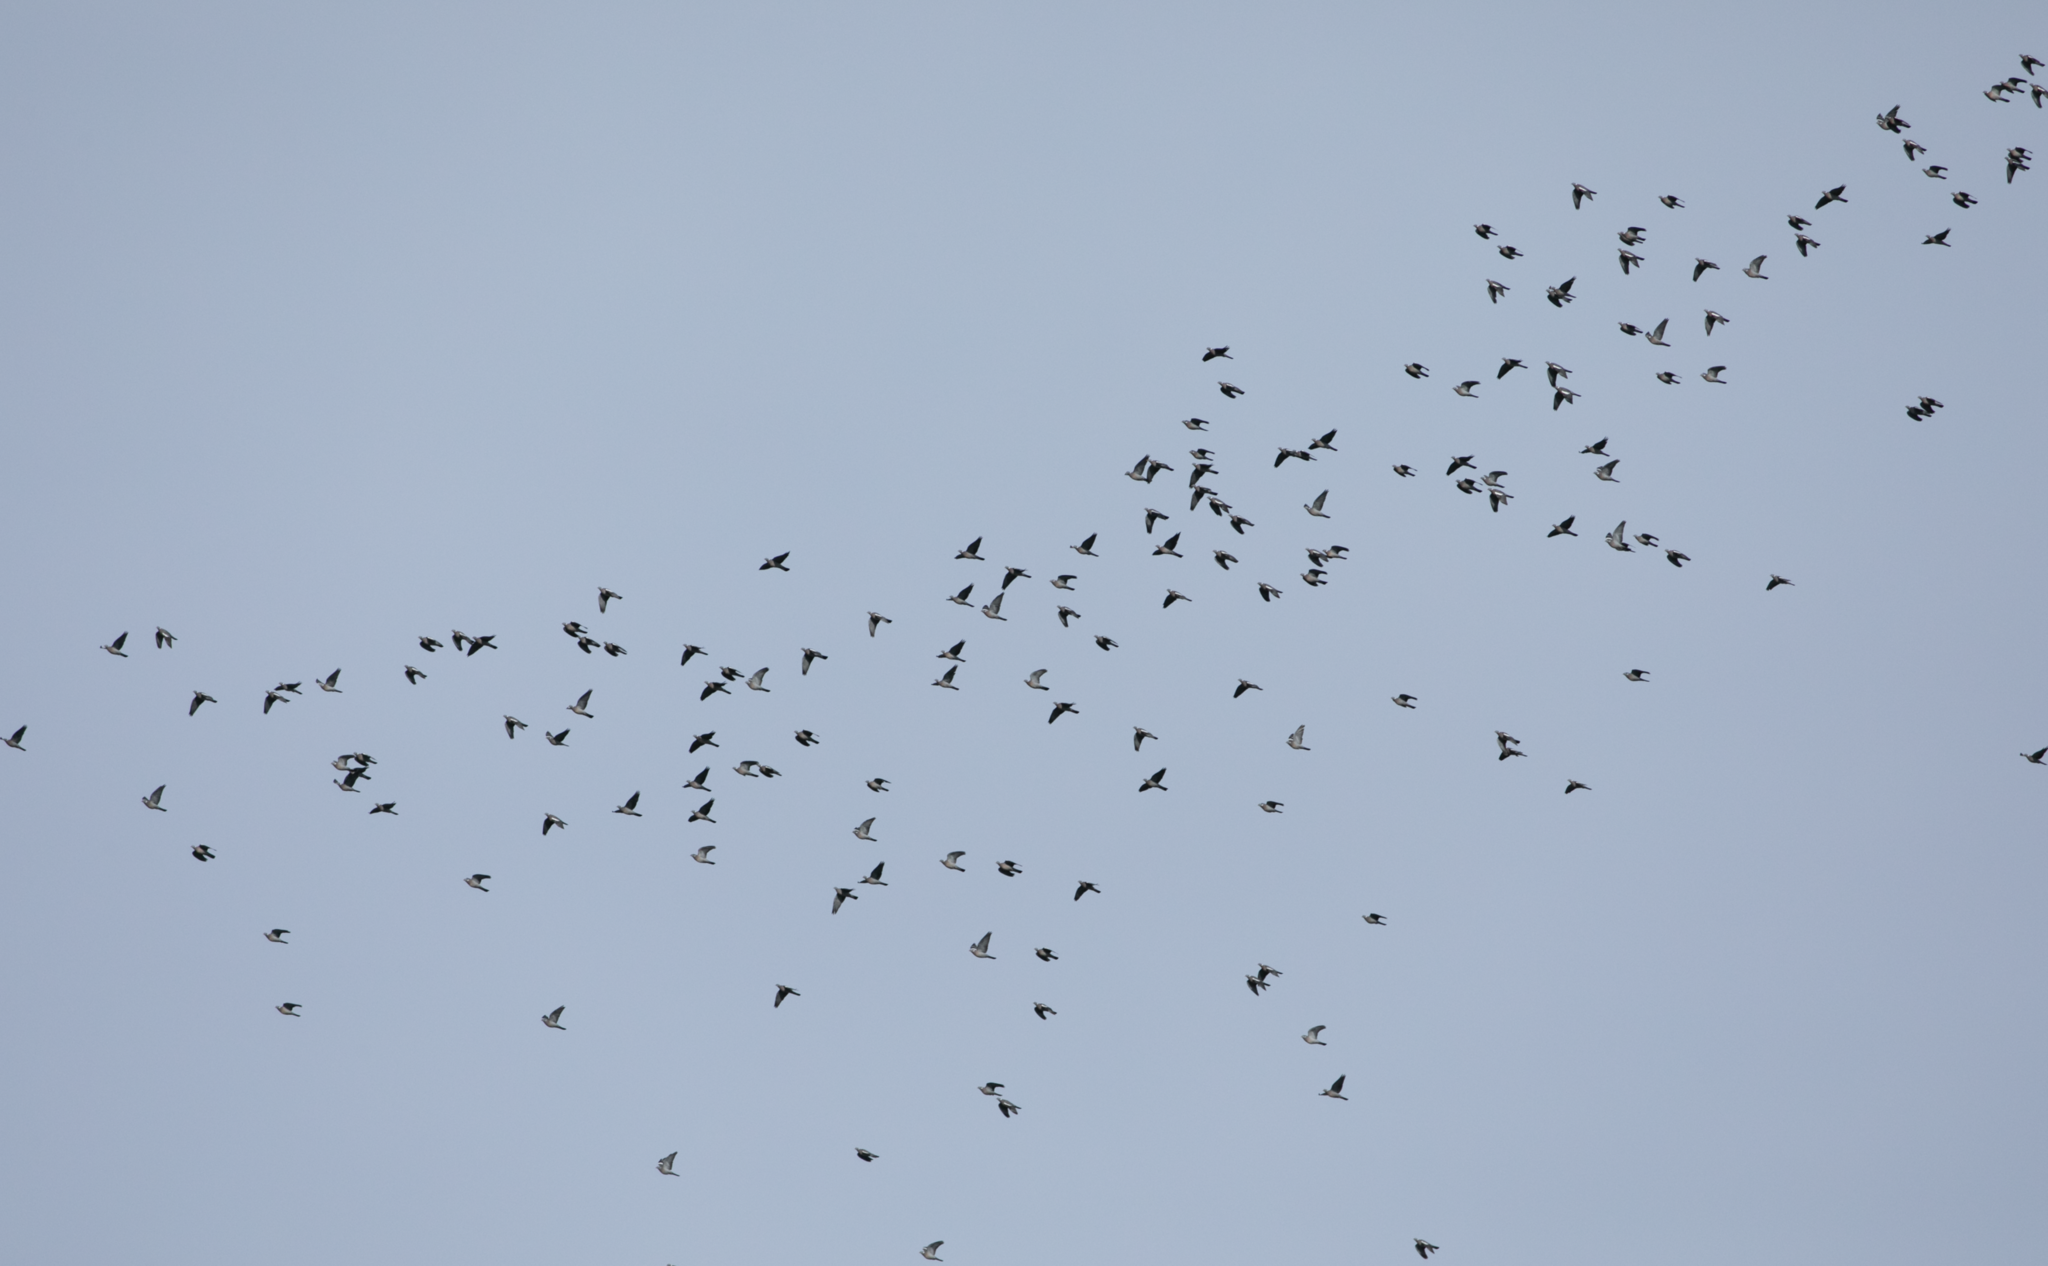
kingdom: Animalia
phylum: Chordata
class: Aves
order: Columbiformes
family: Columbidae
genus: Columba
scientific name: Columba palumbus
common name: Common wood pigeon
